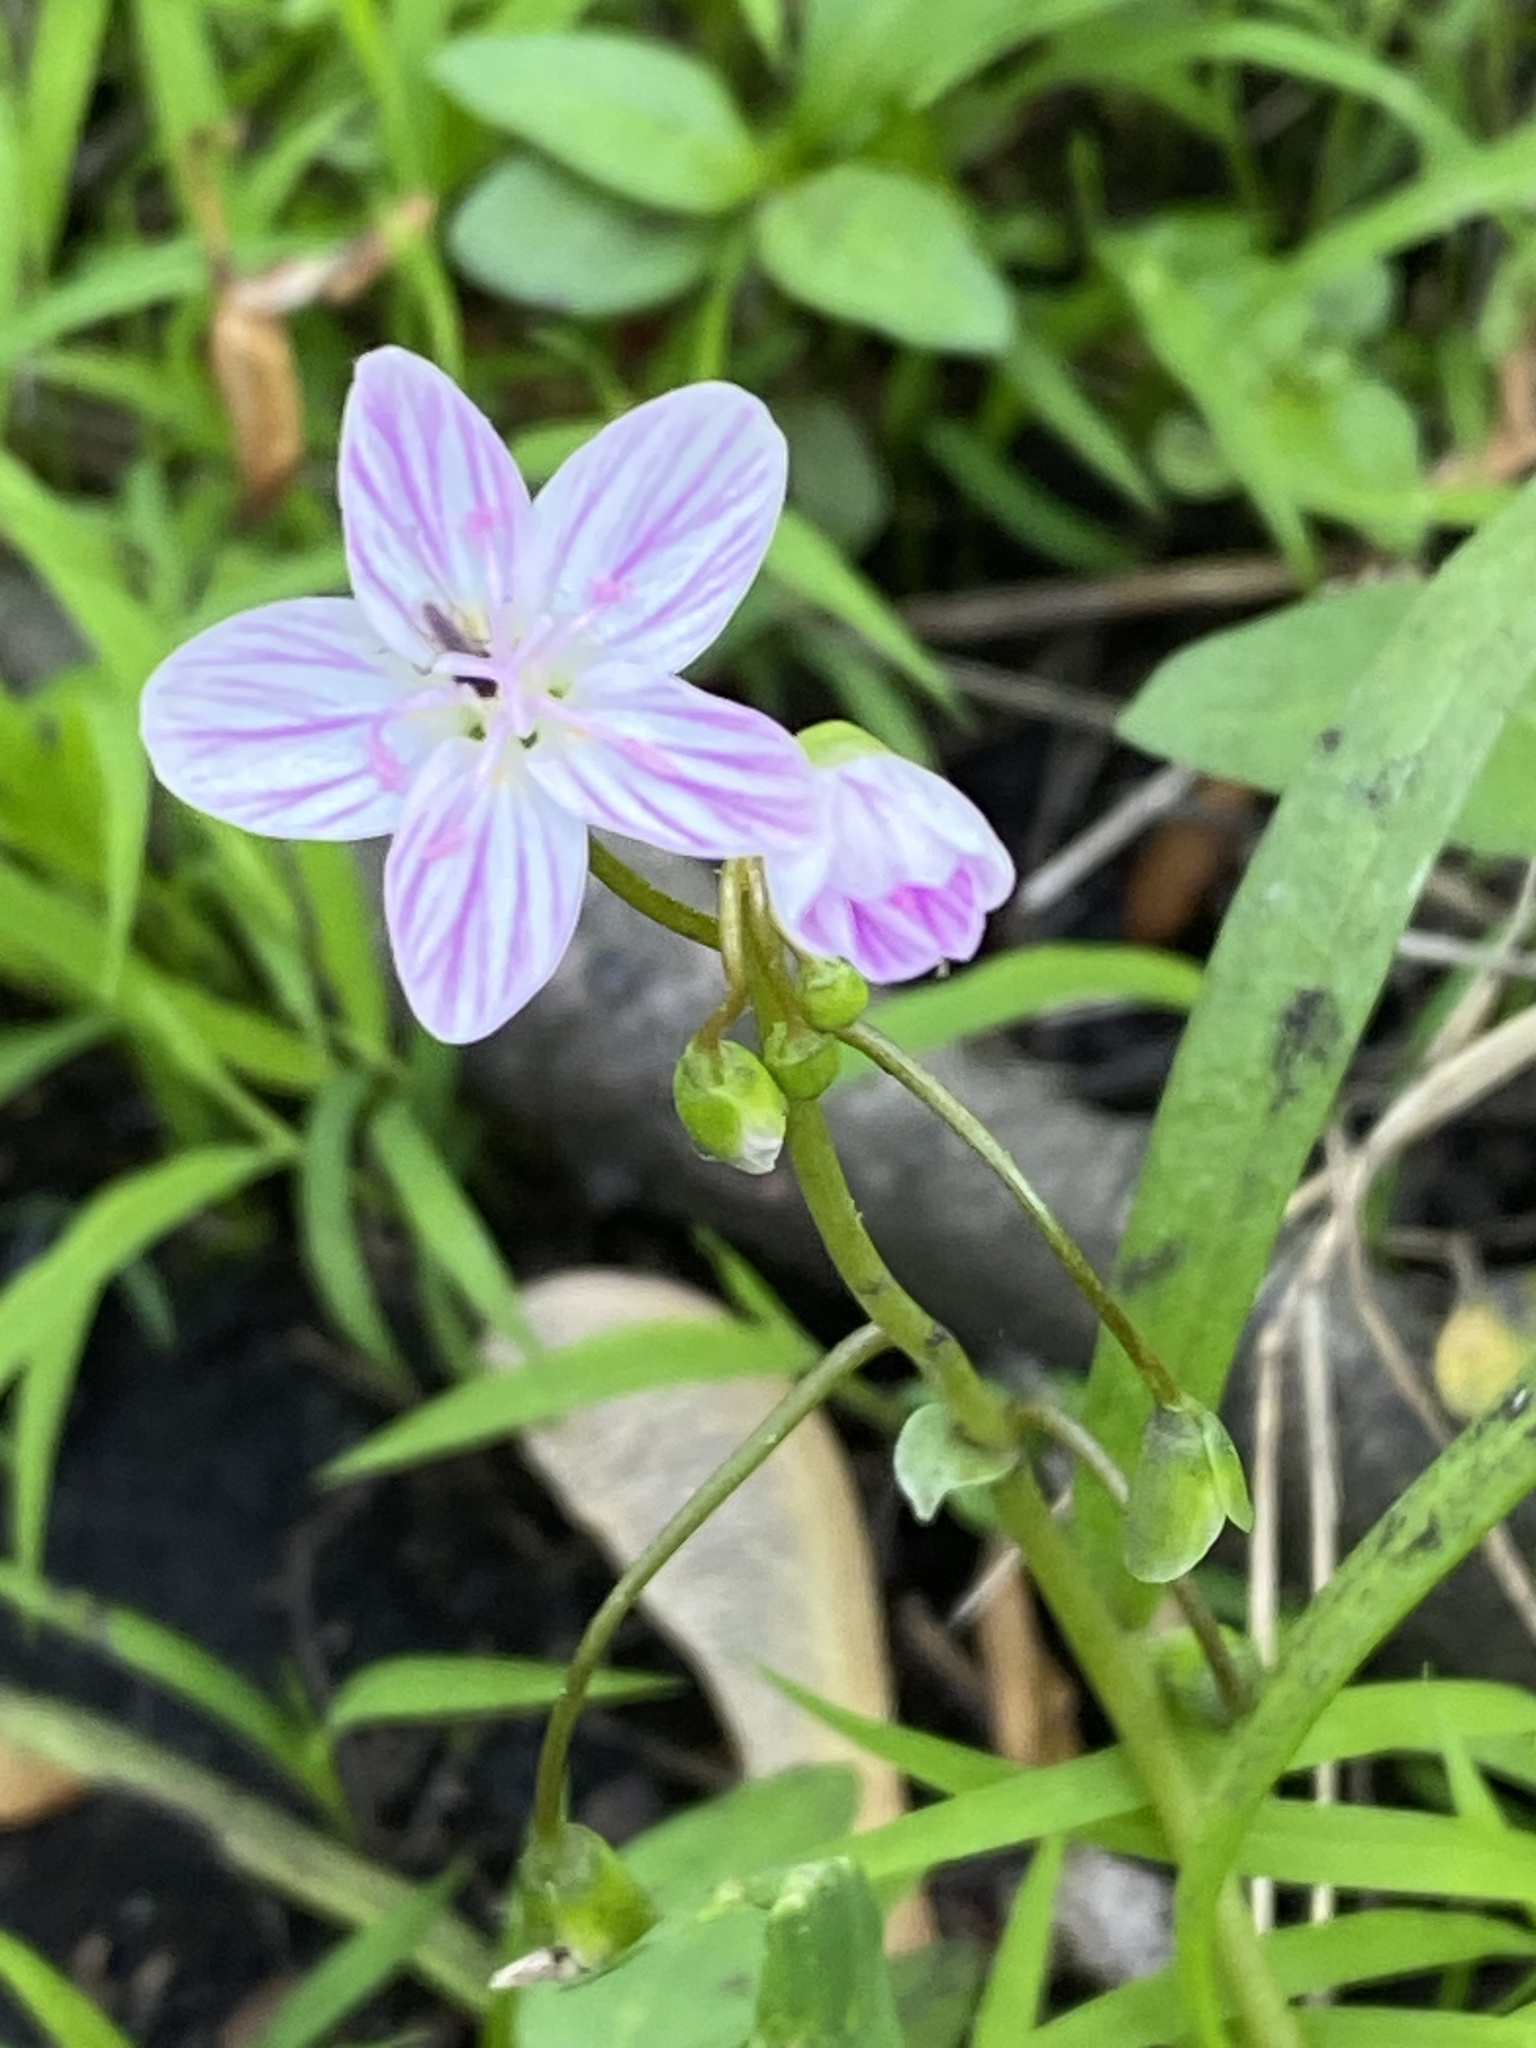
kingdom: Plantae
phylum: Tracheophyta
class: Magnoliopsida
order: Caryophyllales
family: Montiaceae
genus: Claytonia
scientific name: Claytonia virginica
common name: Virginia springbeauty
